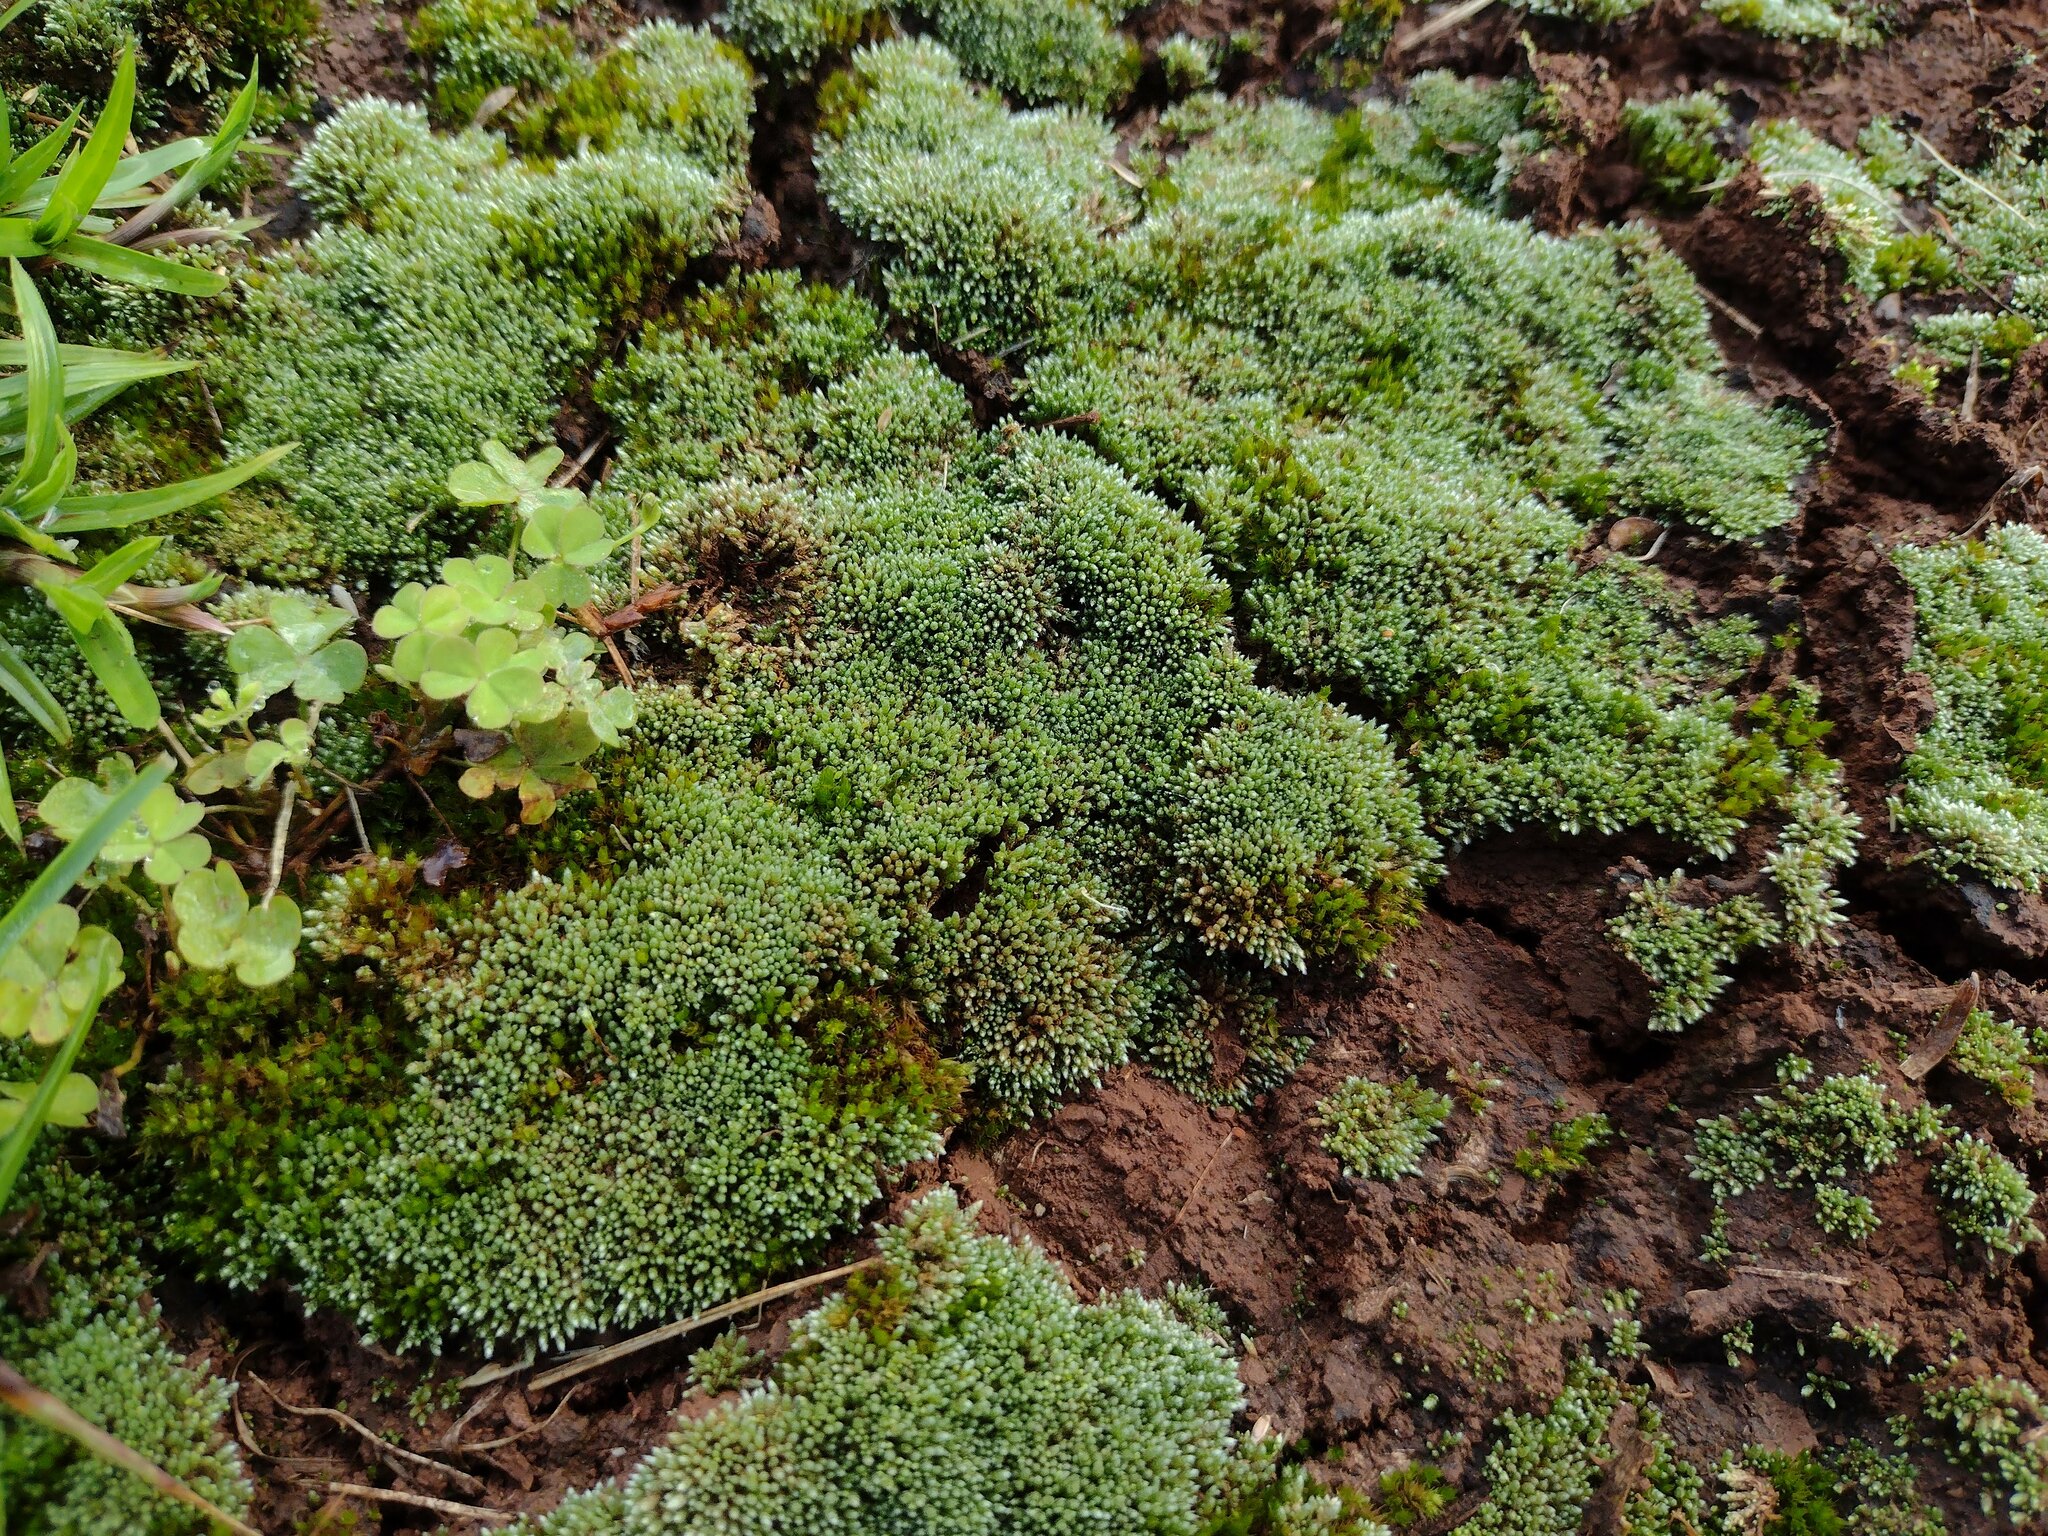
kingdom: Plantae
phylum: Bryophyta
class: Bryopsida
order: Bryales
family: Bryaceae
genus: Bryum
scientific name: Bryum argenteum
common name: Silver-moss
